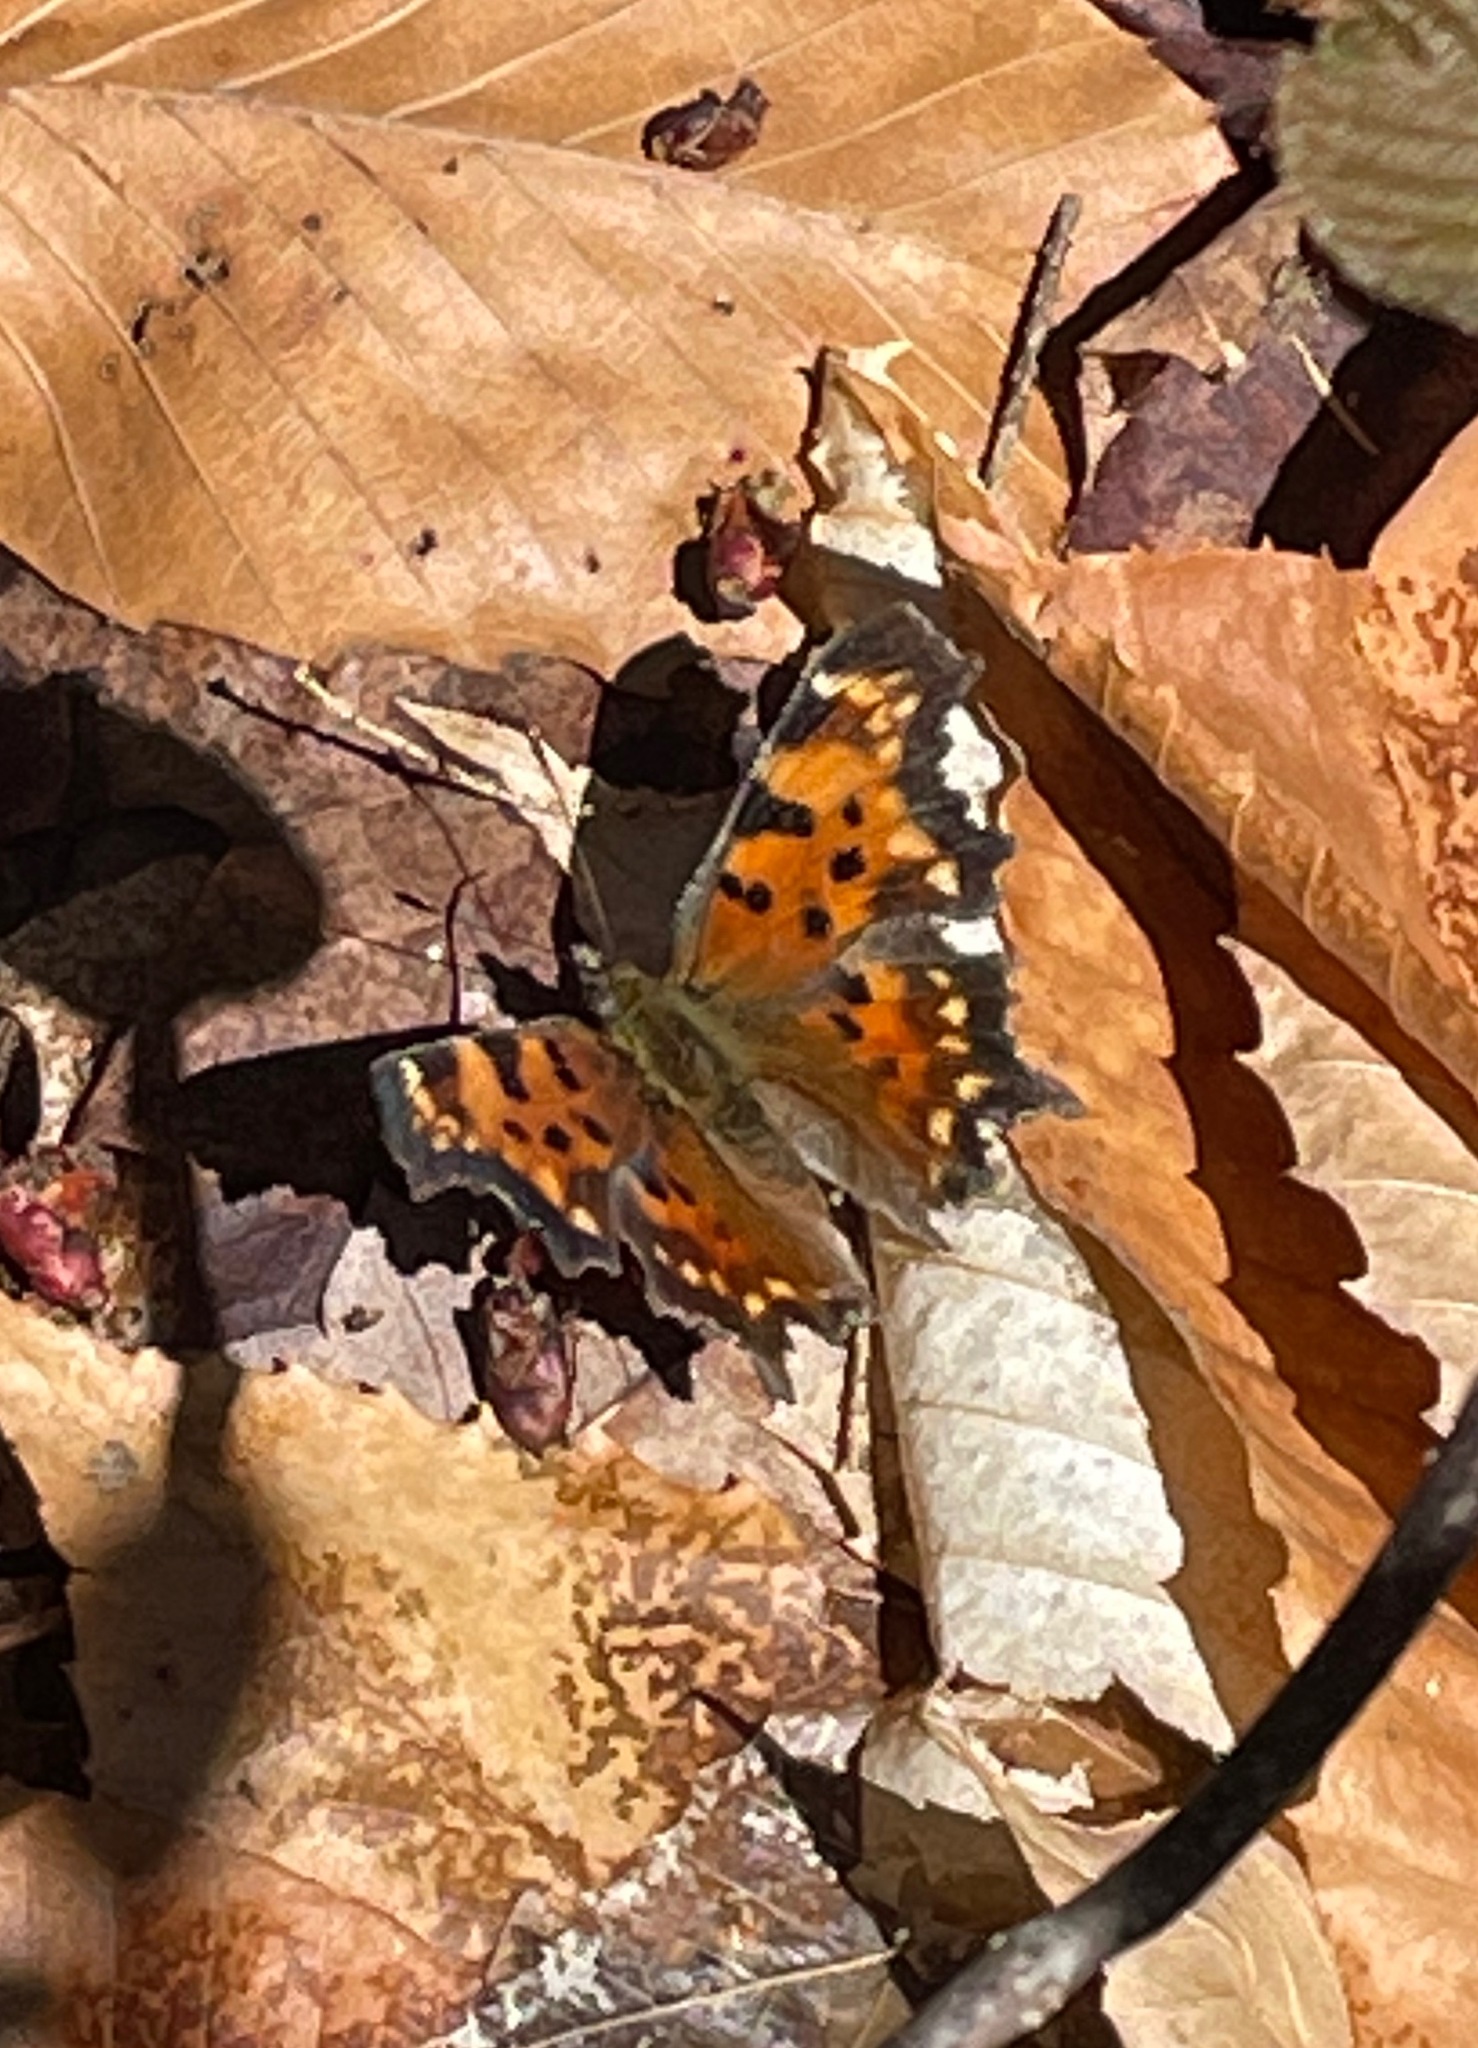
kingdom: Animalia
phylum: Arthropoda
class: Insecta
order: Lepidoptera
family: Nymphalidae
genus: Polygonia
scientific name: Polygonia faunus
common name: Green comma
